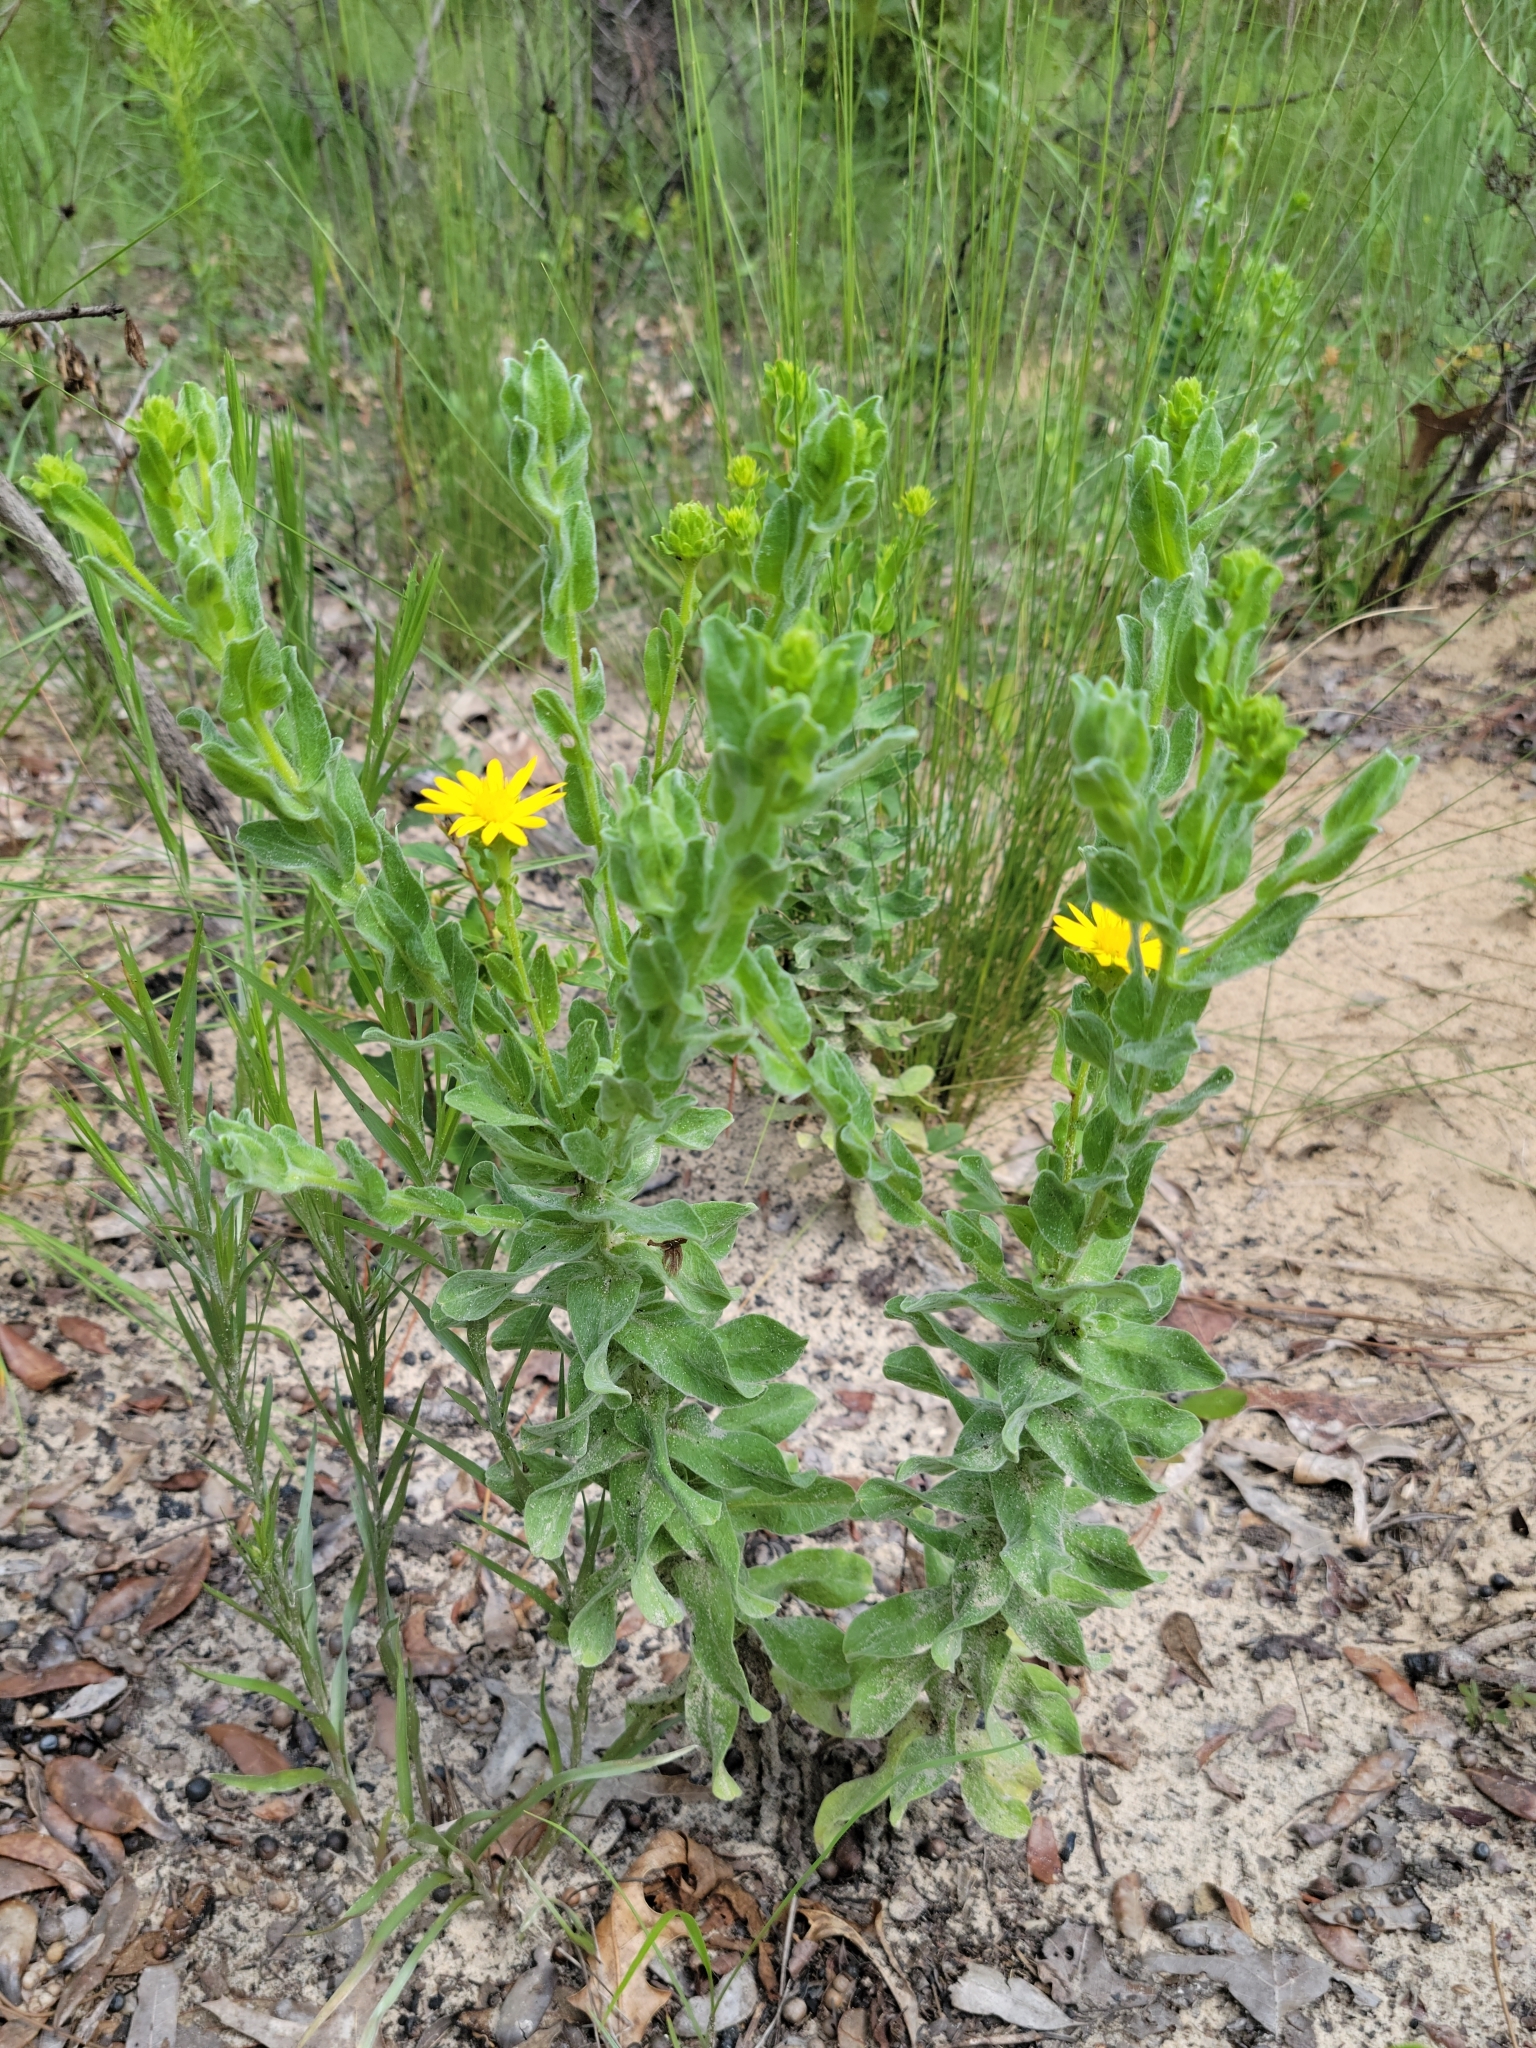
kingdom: Plantae
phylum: Tracheophyta
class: Magnoliopsida
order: Asterales
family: Asteraceae
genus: Chrysopsis
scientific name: Chrysopsis latisquamea
